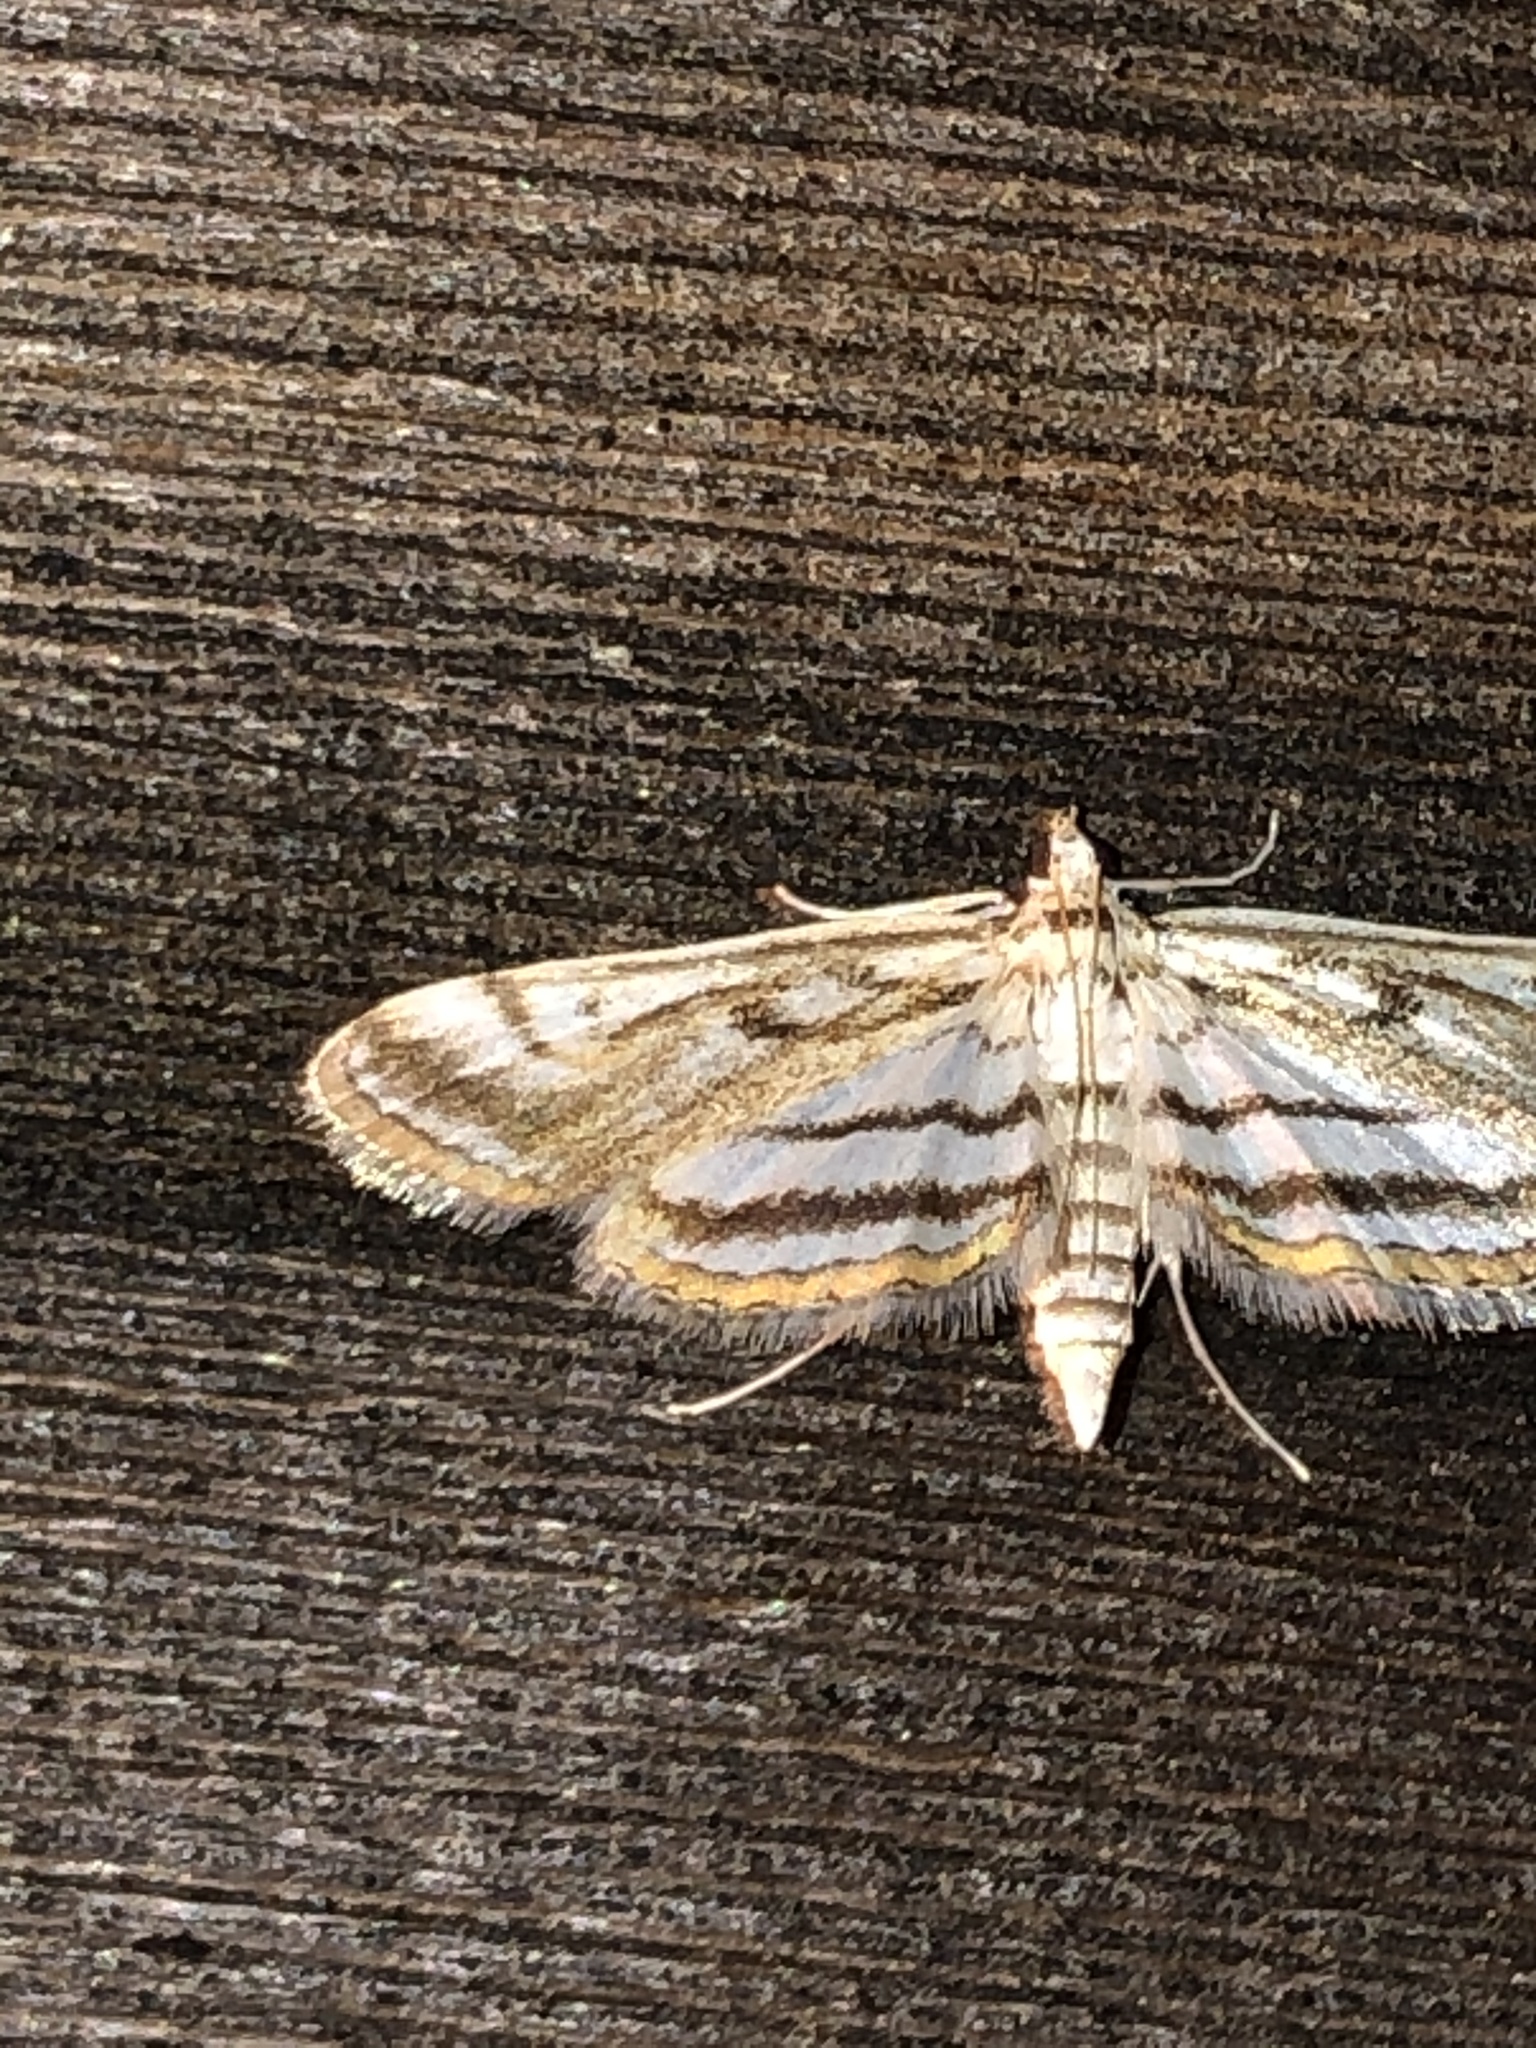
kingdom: Animalia
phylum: Arthropoda
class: Insecta
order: Lepidoptera
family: Crambidae
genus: Parapoynx
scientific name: Parapoynx badiusalis
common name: Chestnut-marked pondweed moth
